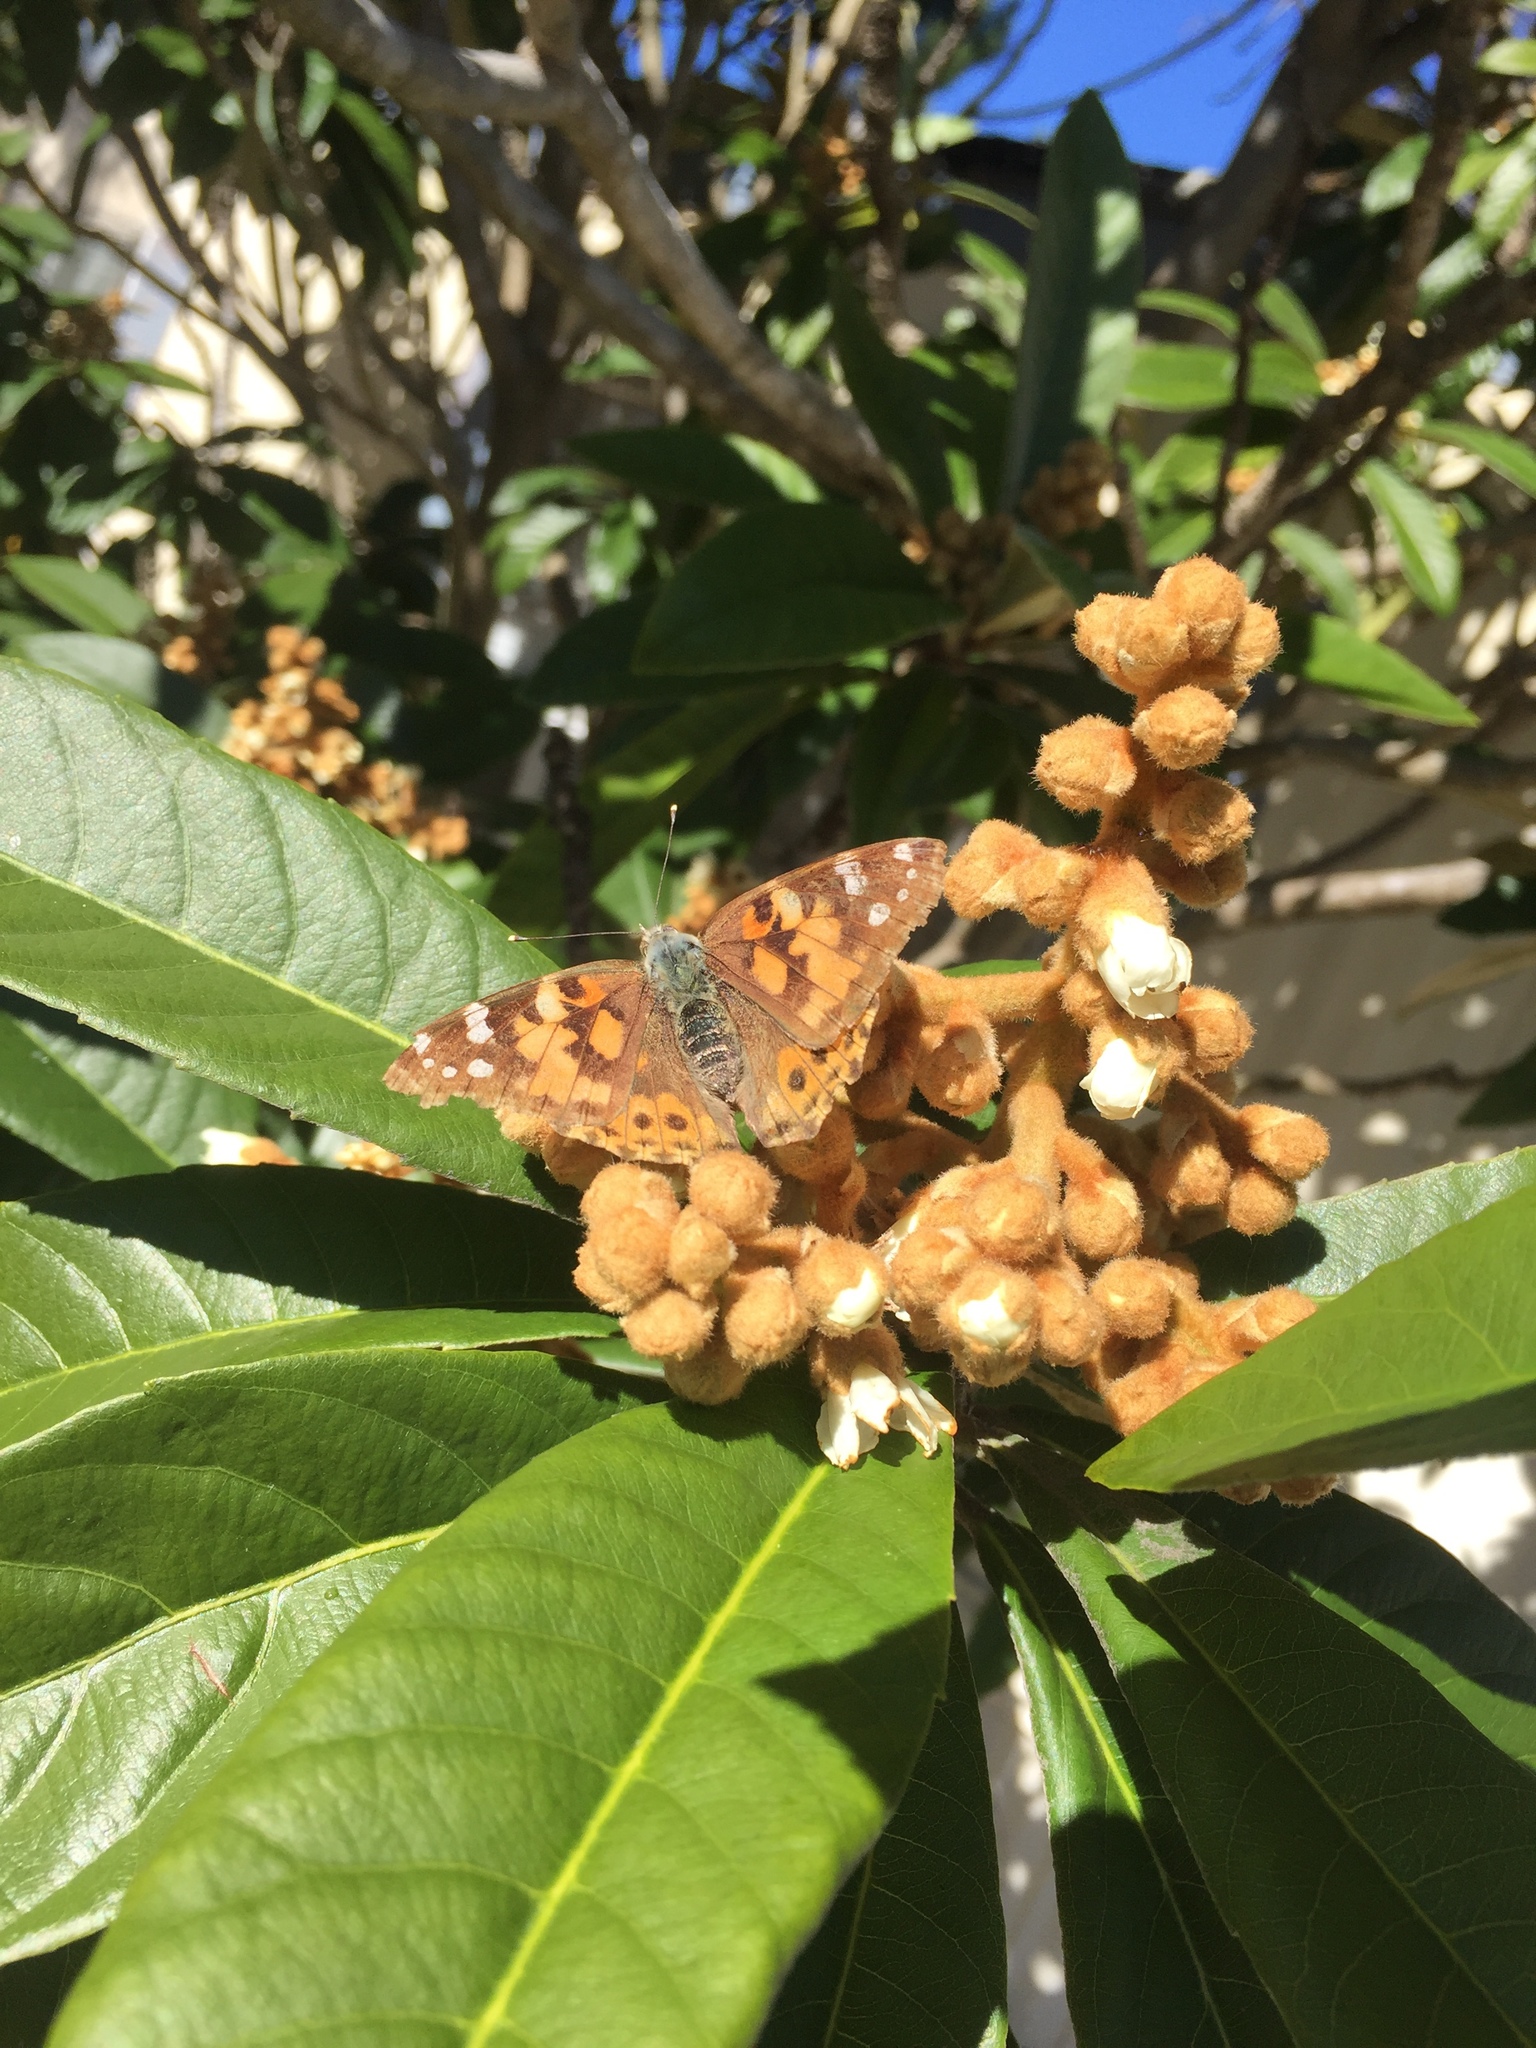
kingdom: Animalia
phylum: Arthropoda
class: Insecta
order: Lepidoptera
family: Nymphalidae
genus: Vanessa
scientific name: Vanessa cardui
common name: Painted lady
